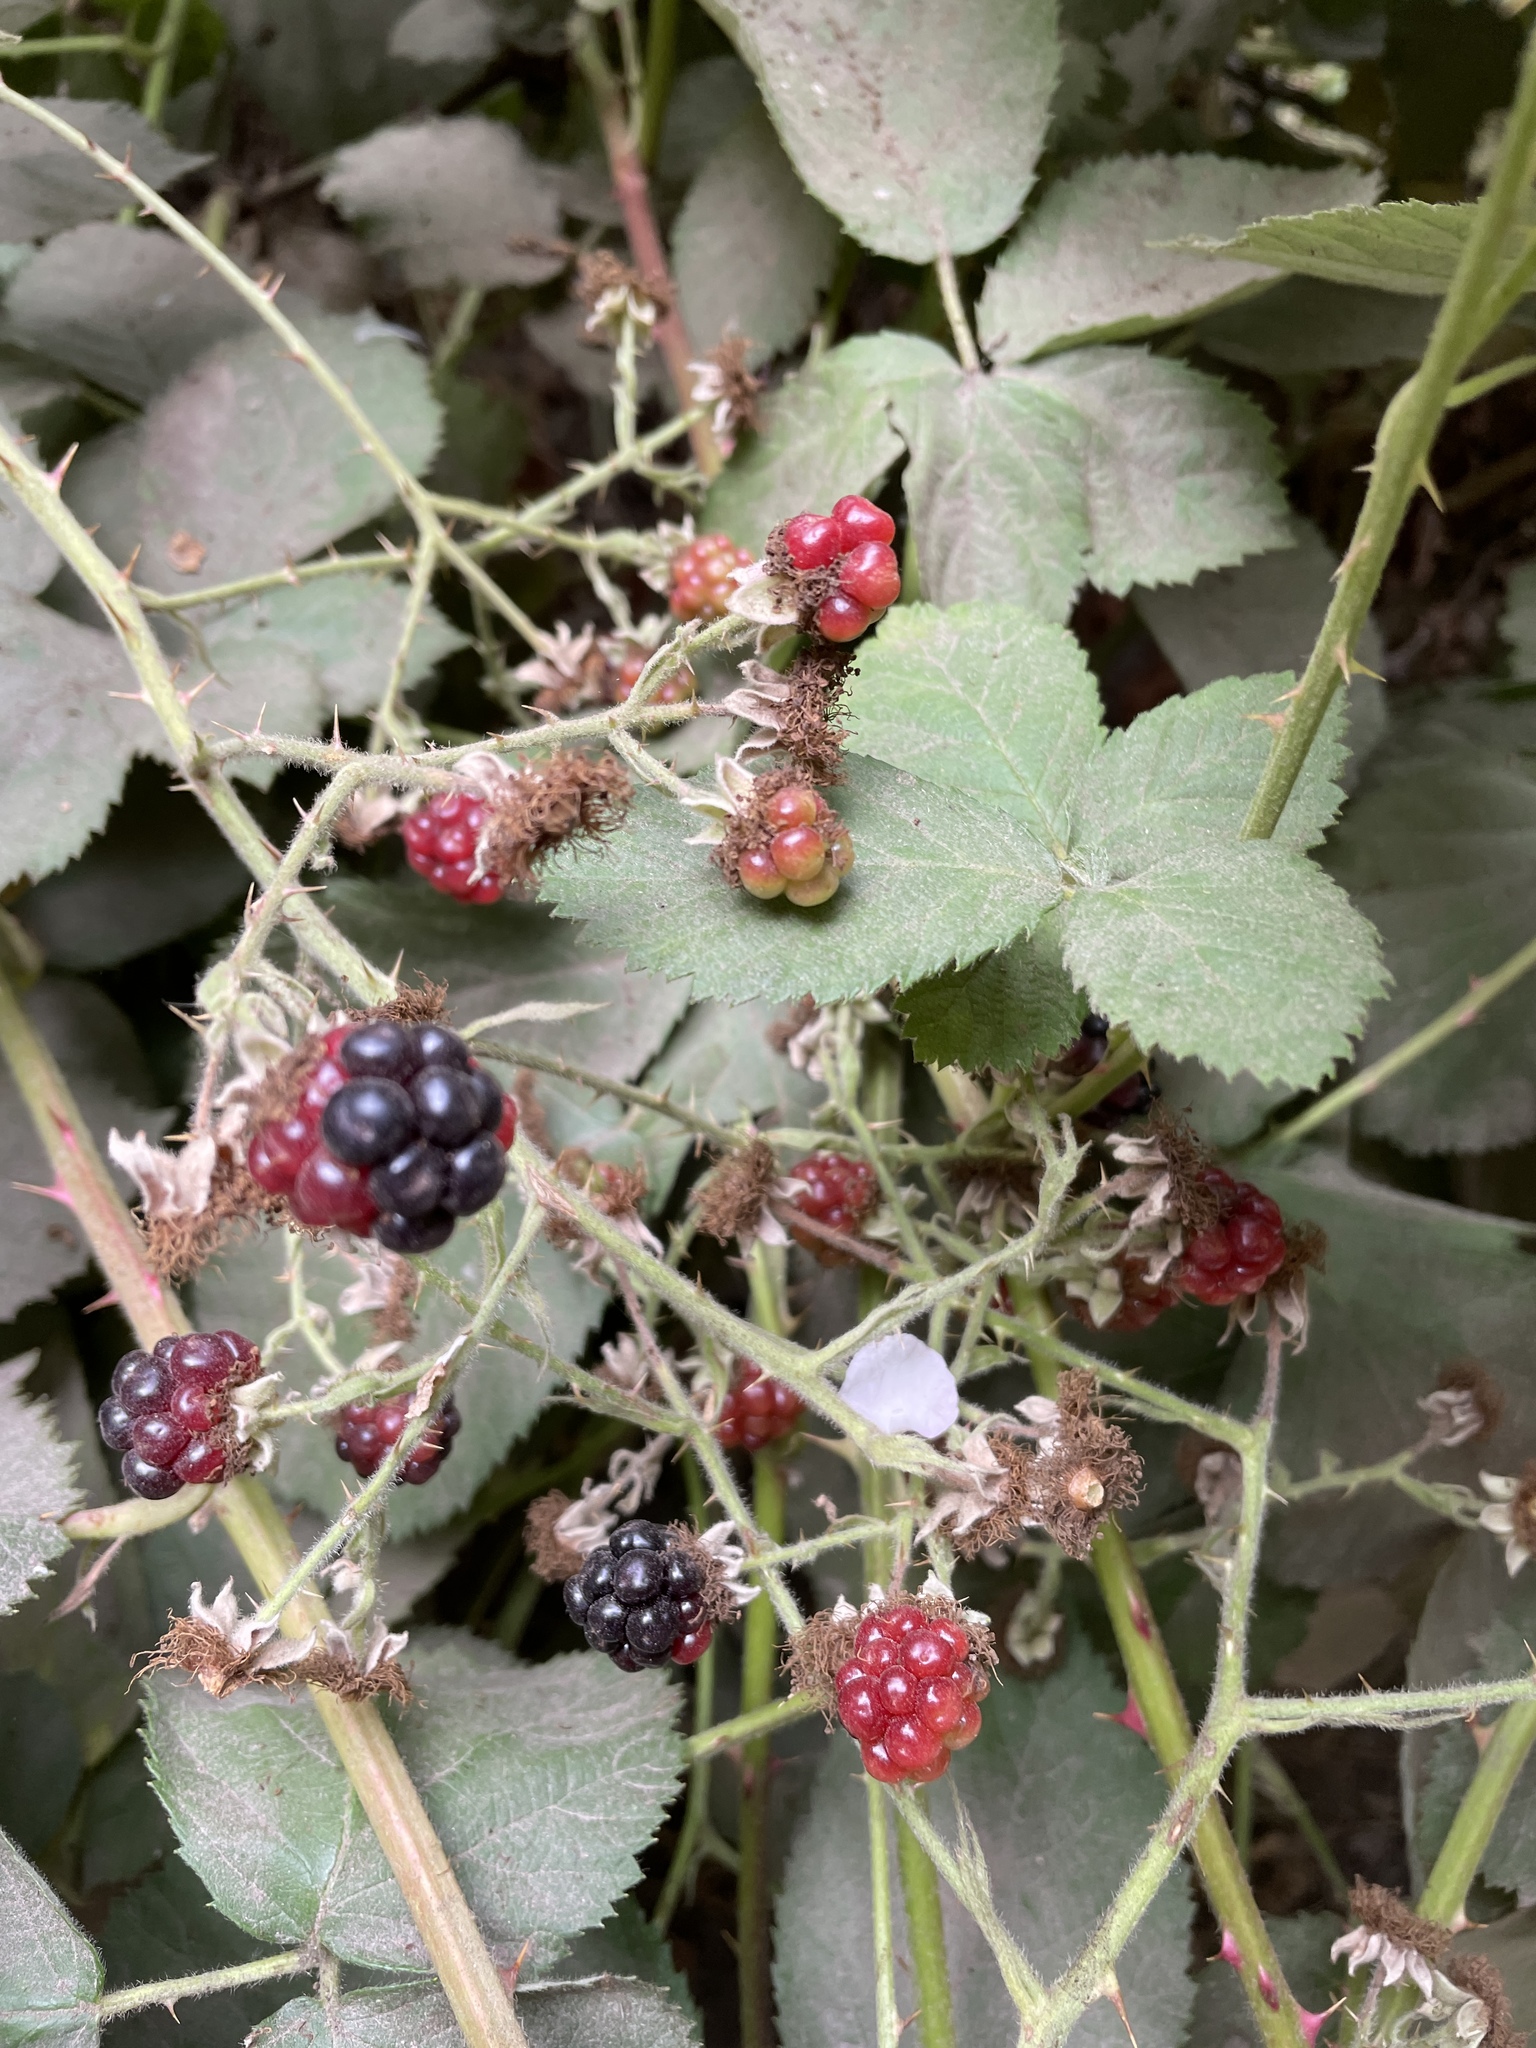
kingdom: Plantae
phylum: Tracheophyta
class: Magnoliopsida
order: Rosales
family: Rosaceae
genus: Rubus
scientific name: Rubus armeniacus
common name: Himalayan blackberry
